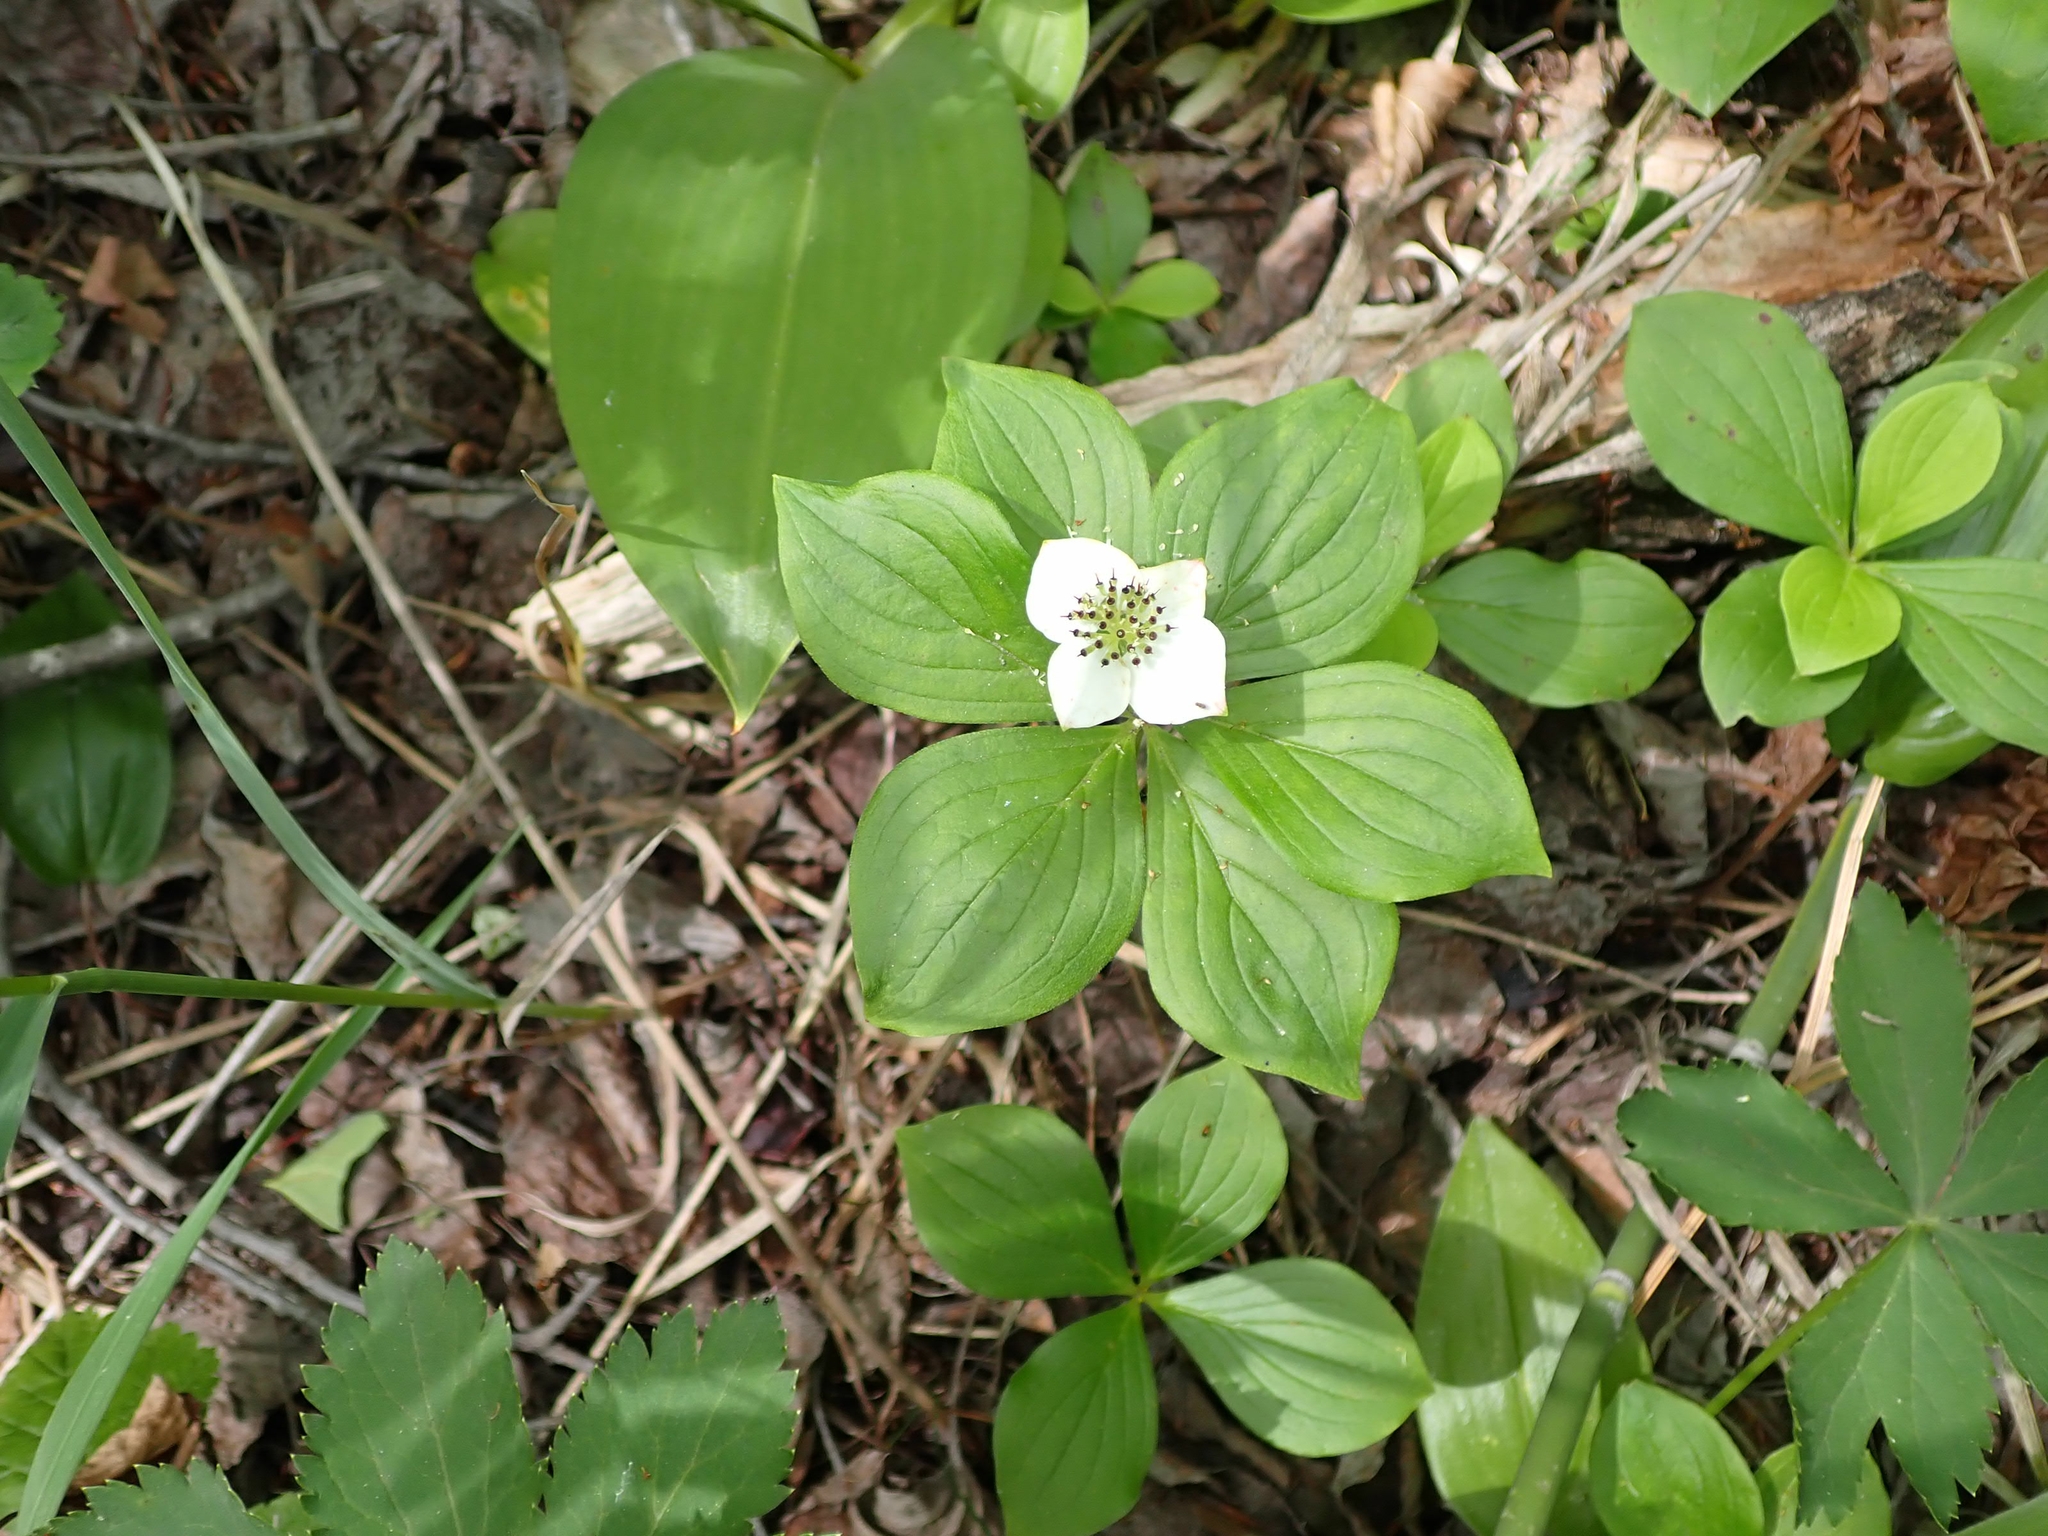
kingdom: Plantae
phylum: Tracheophyta
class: Magnoliopsida
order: Cornales
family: Cornaceae
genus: Cornus
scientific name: Cornus canadensis
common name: Creeping dogwood
